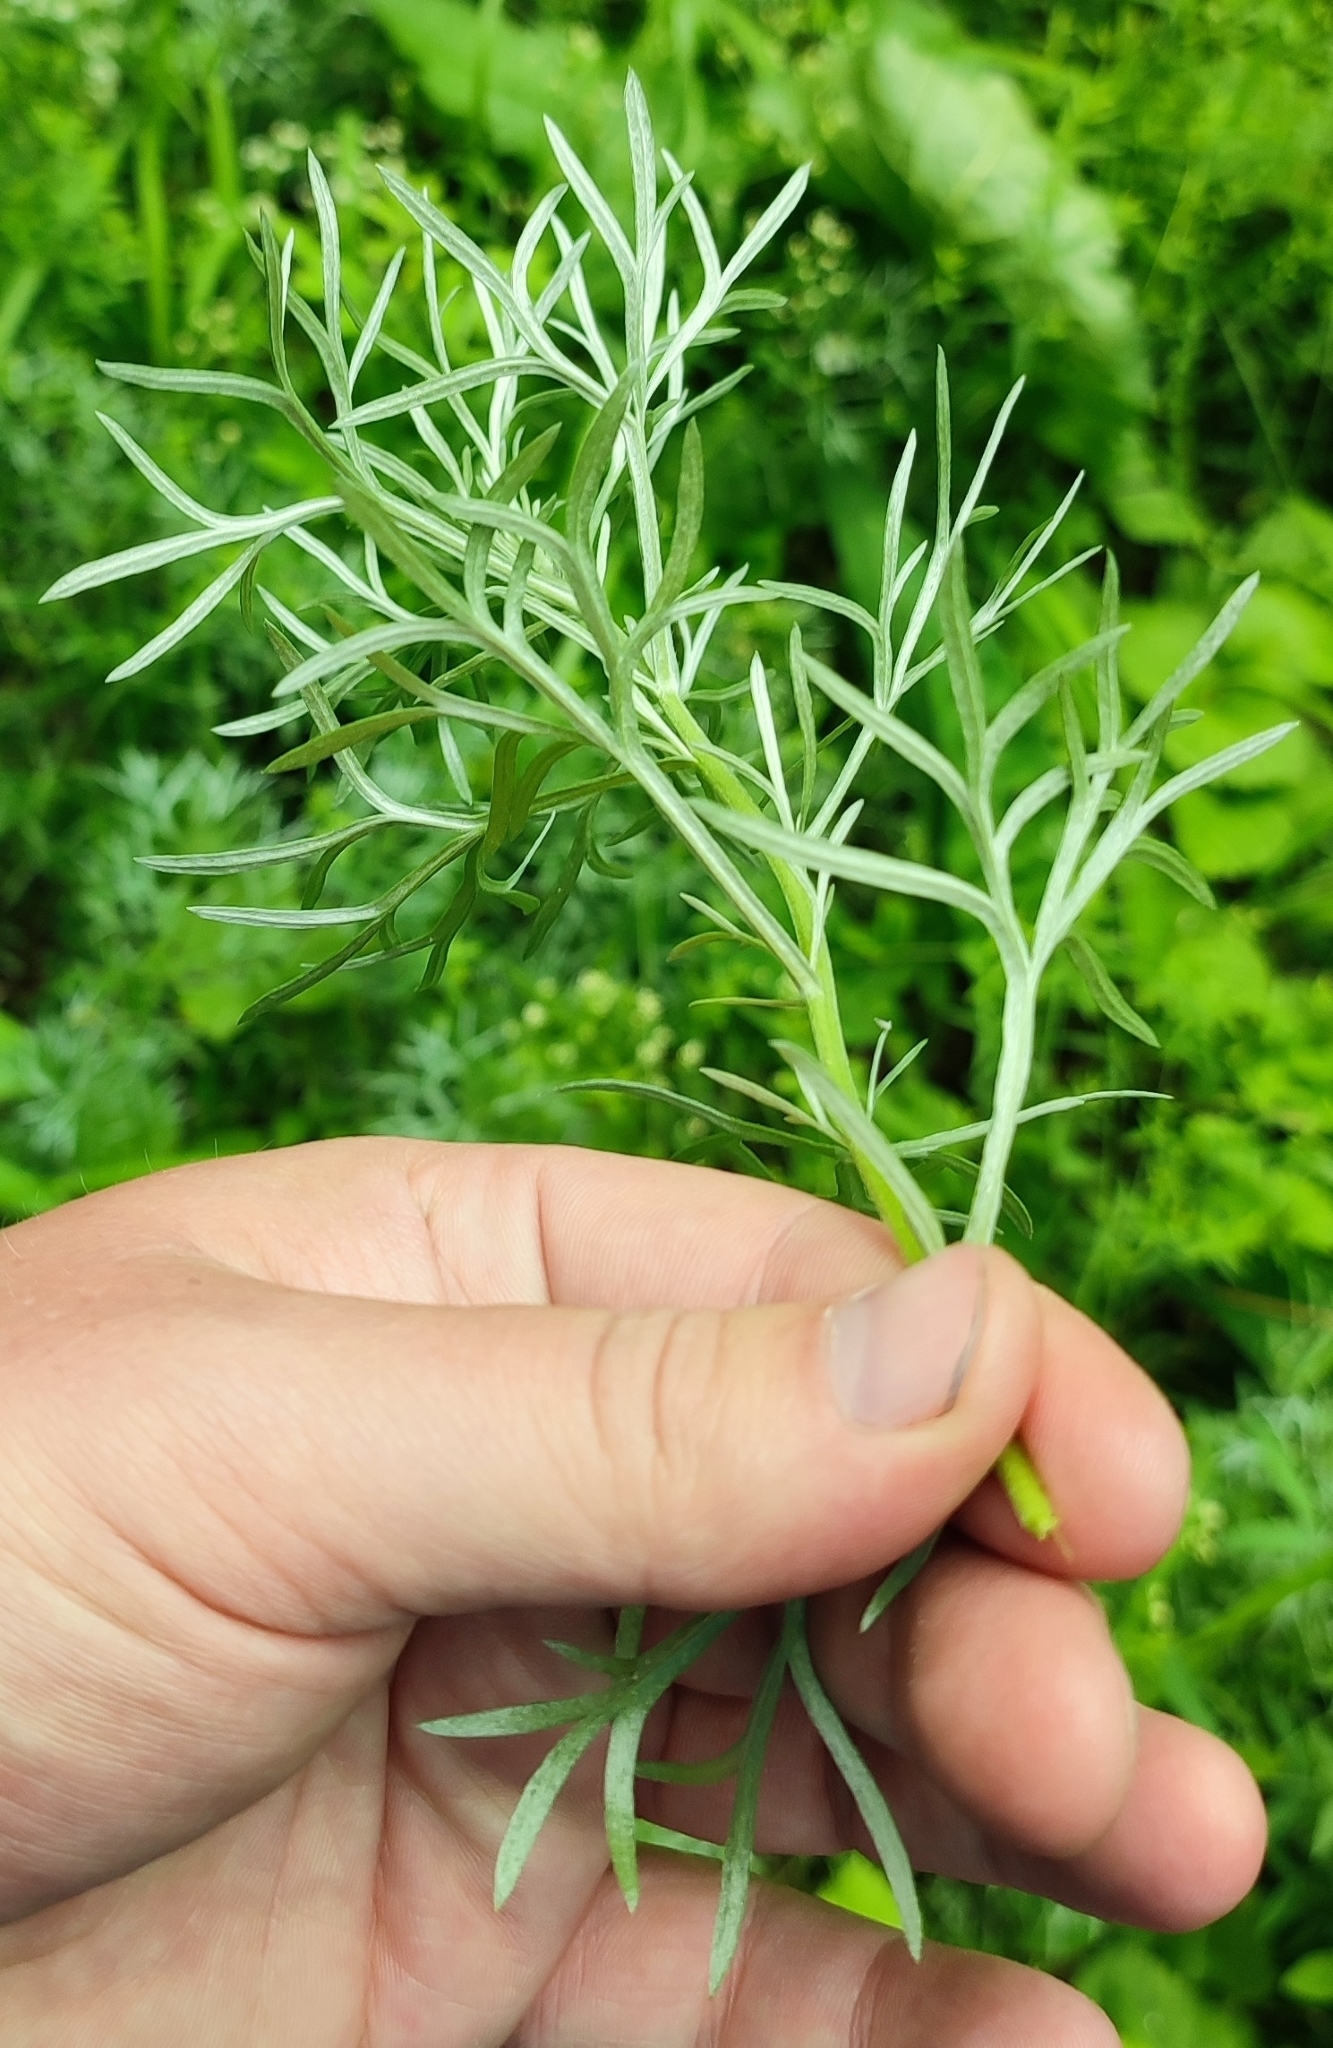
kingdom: Plantae
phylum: Tracheophyta
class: Magnoliopsida
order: Asterales
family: Asteraceae
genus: Artemisia
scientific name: Artemisia sericea
